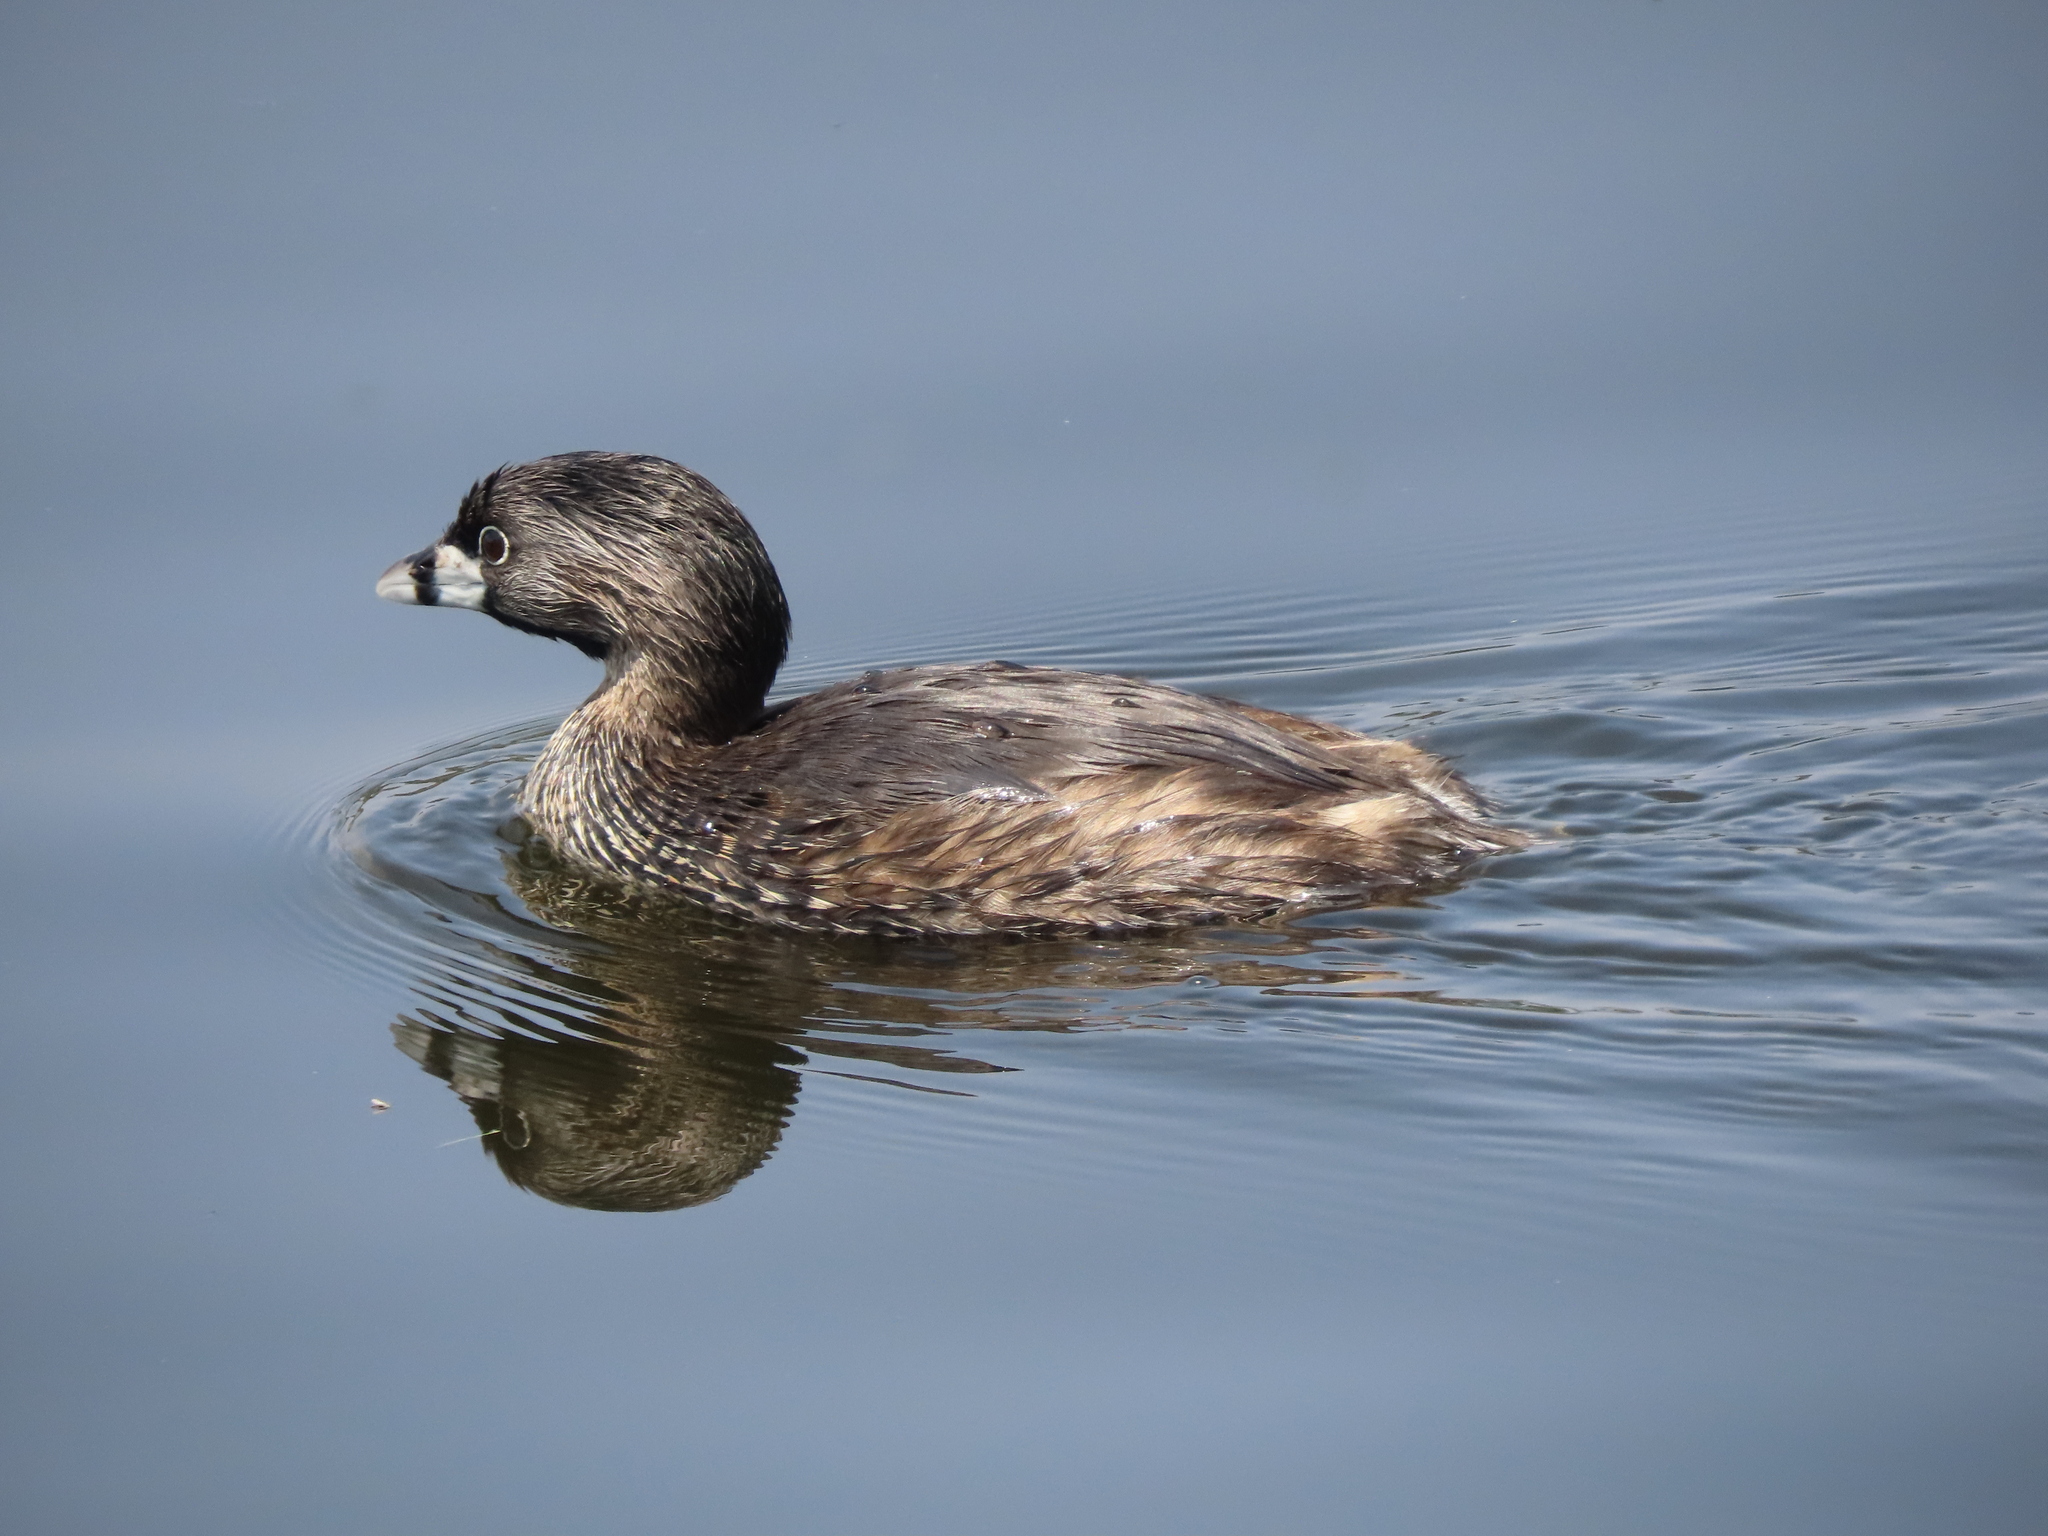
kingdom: Animalia
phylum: Chordata
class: Aves
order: Podicipediformes
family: Podicipedidae
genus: Podilymbus
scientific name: Podilymbus podiceps
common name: Pied-billed grebe
